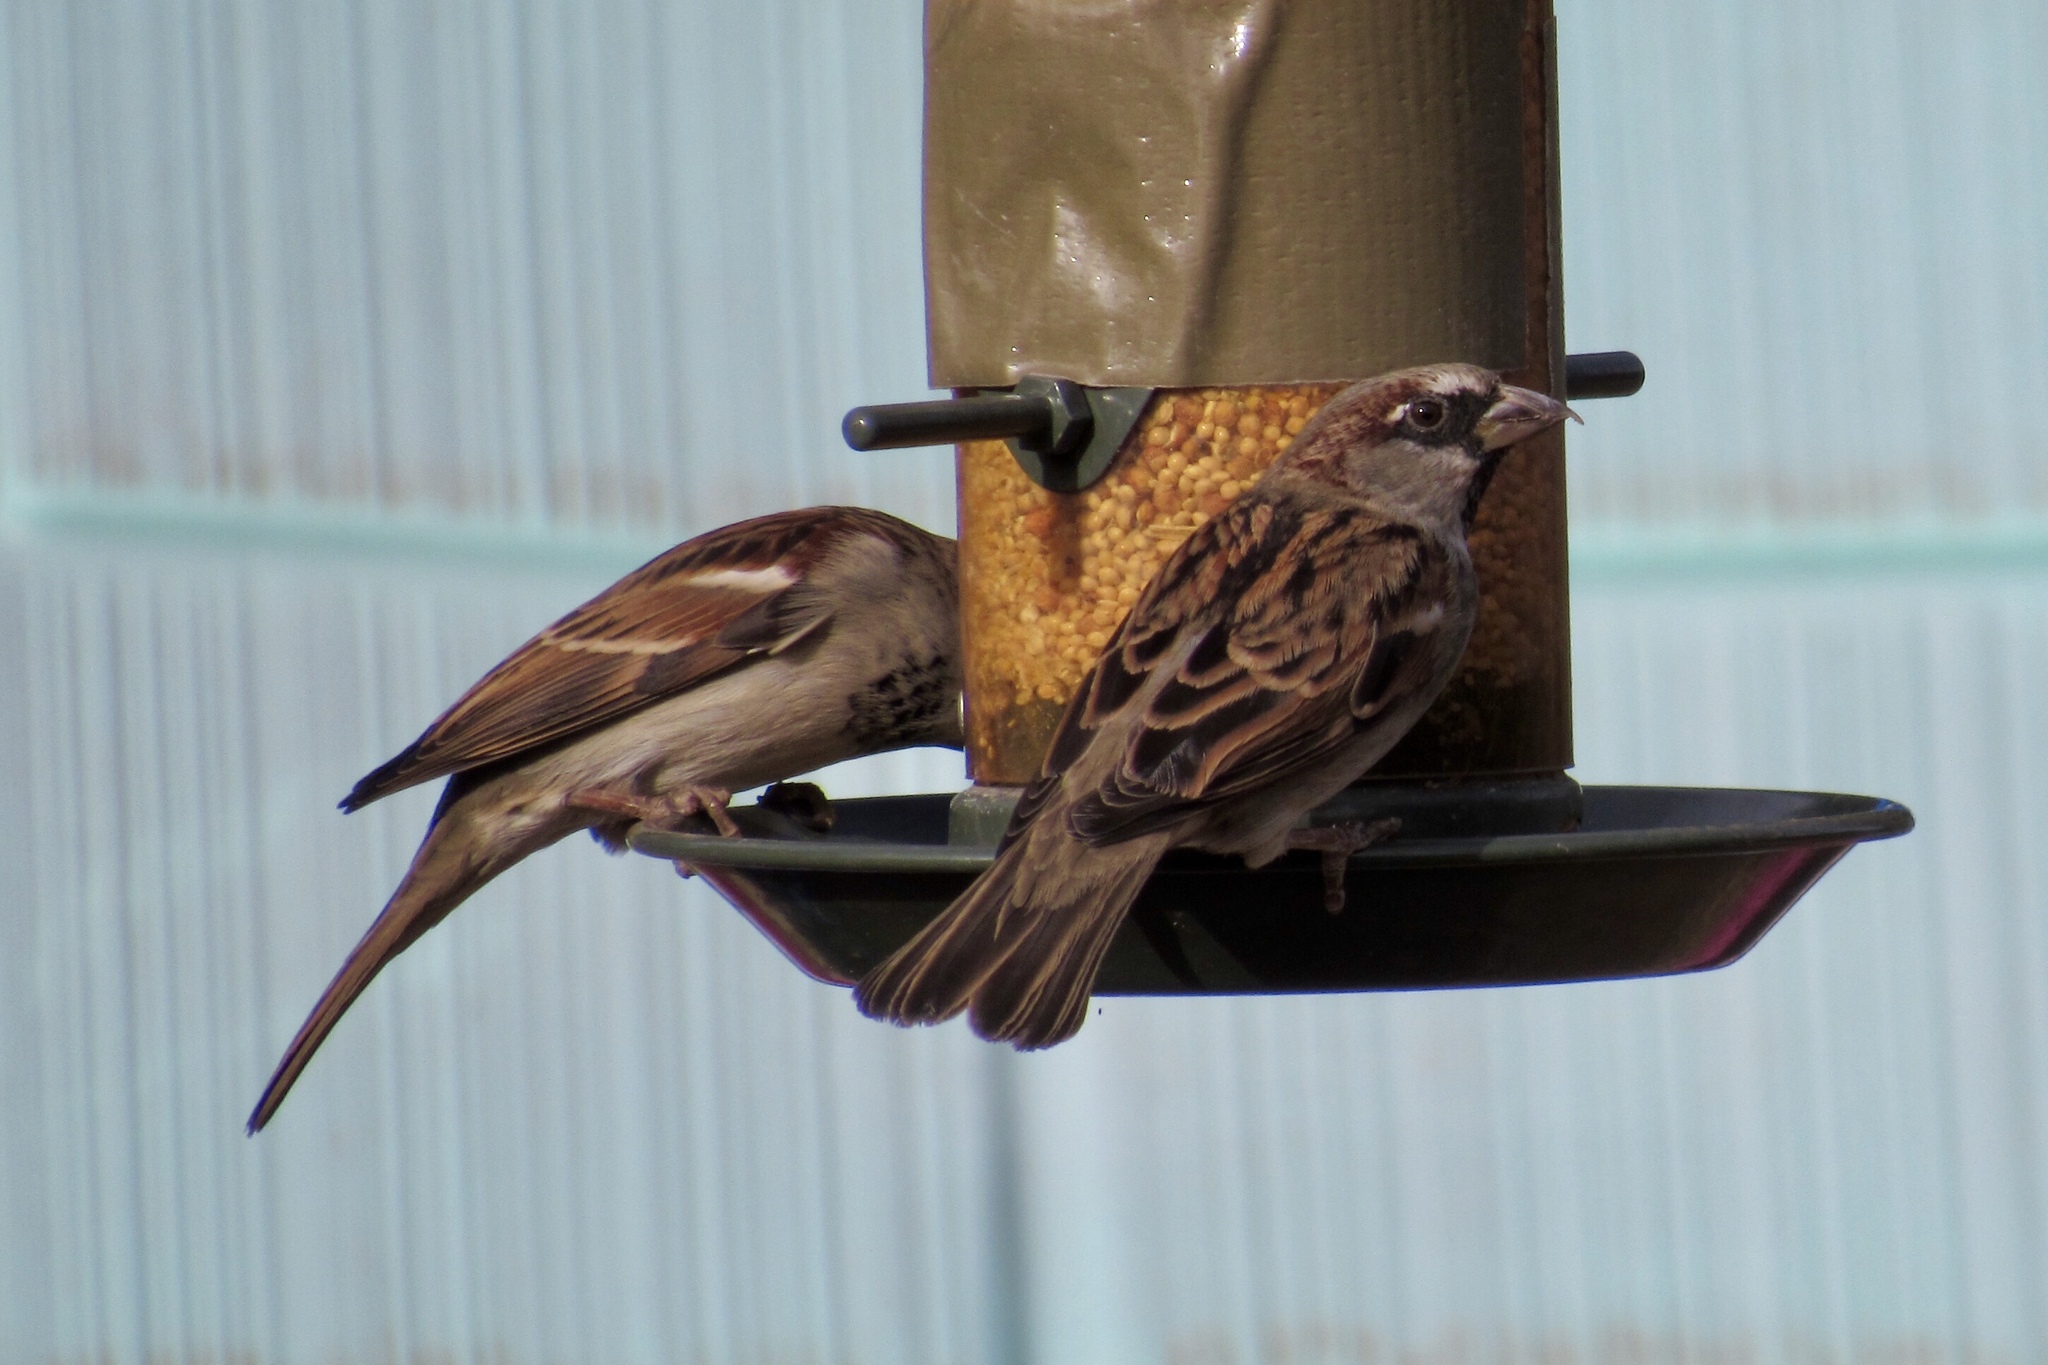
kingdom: Animalia
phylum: Chordata
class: Aves
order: Passeriformes
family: Passeridae
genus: Passer
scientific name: Passer domesticus
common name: House sparrow
